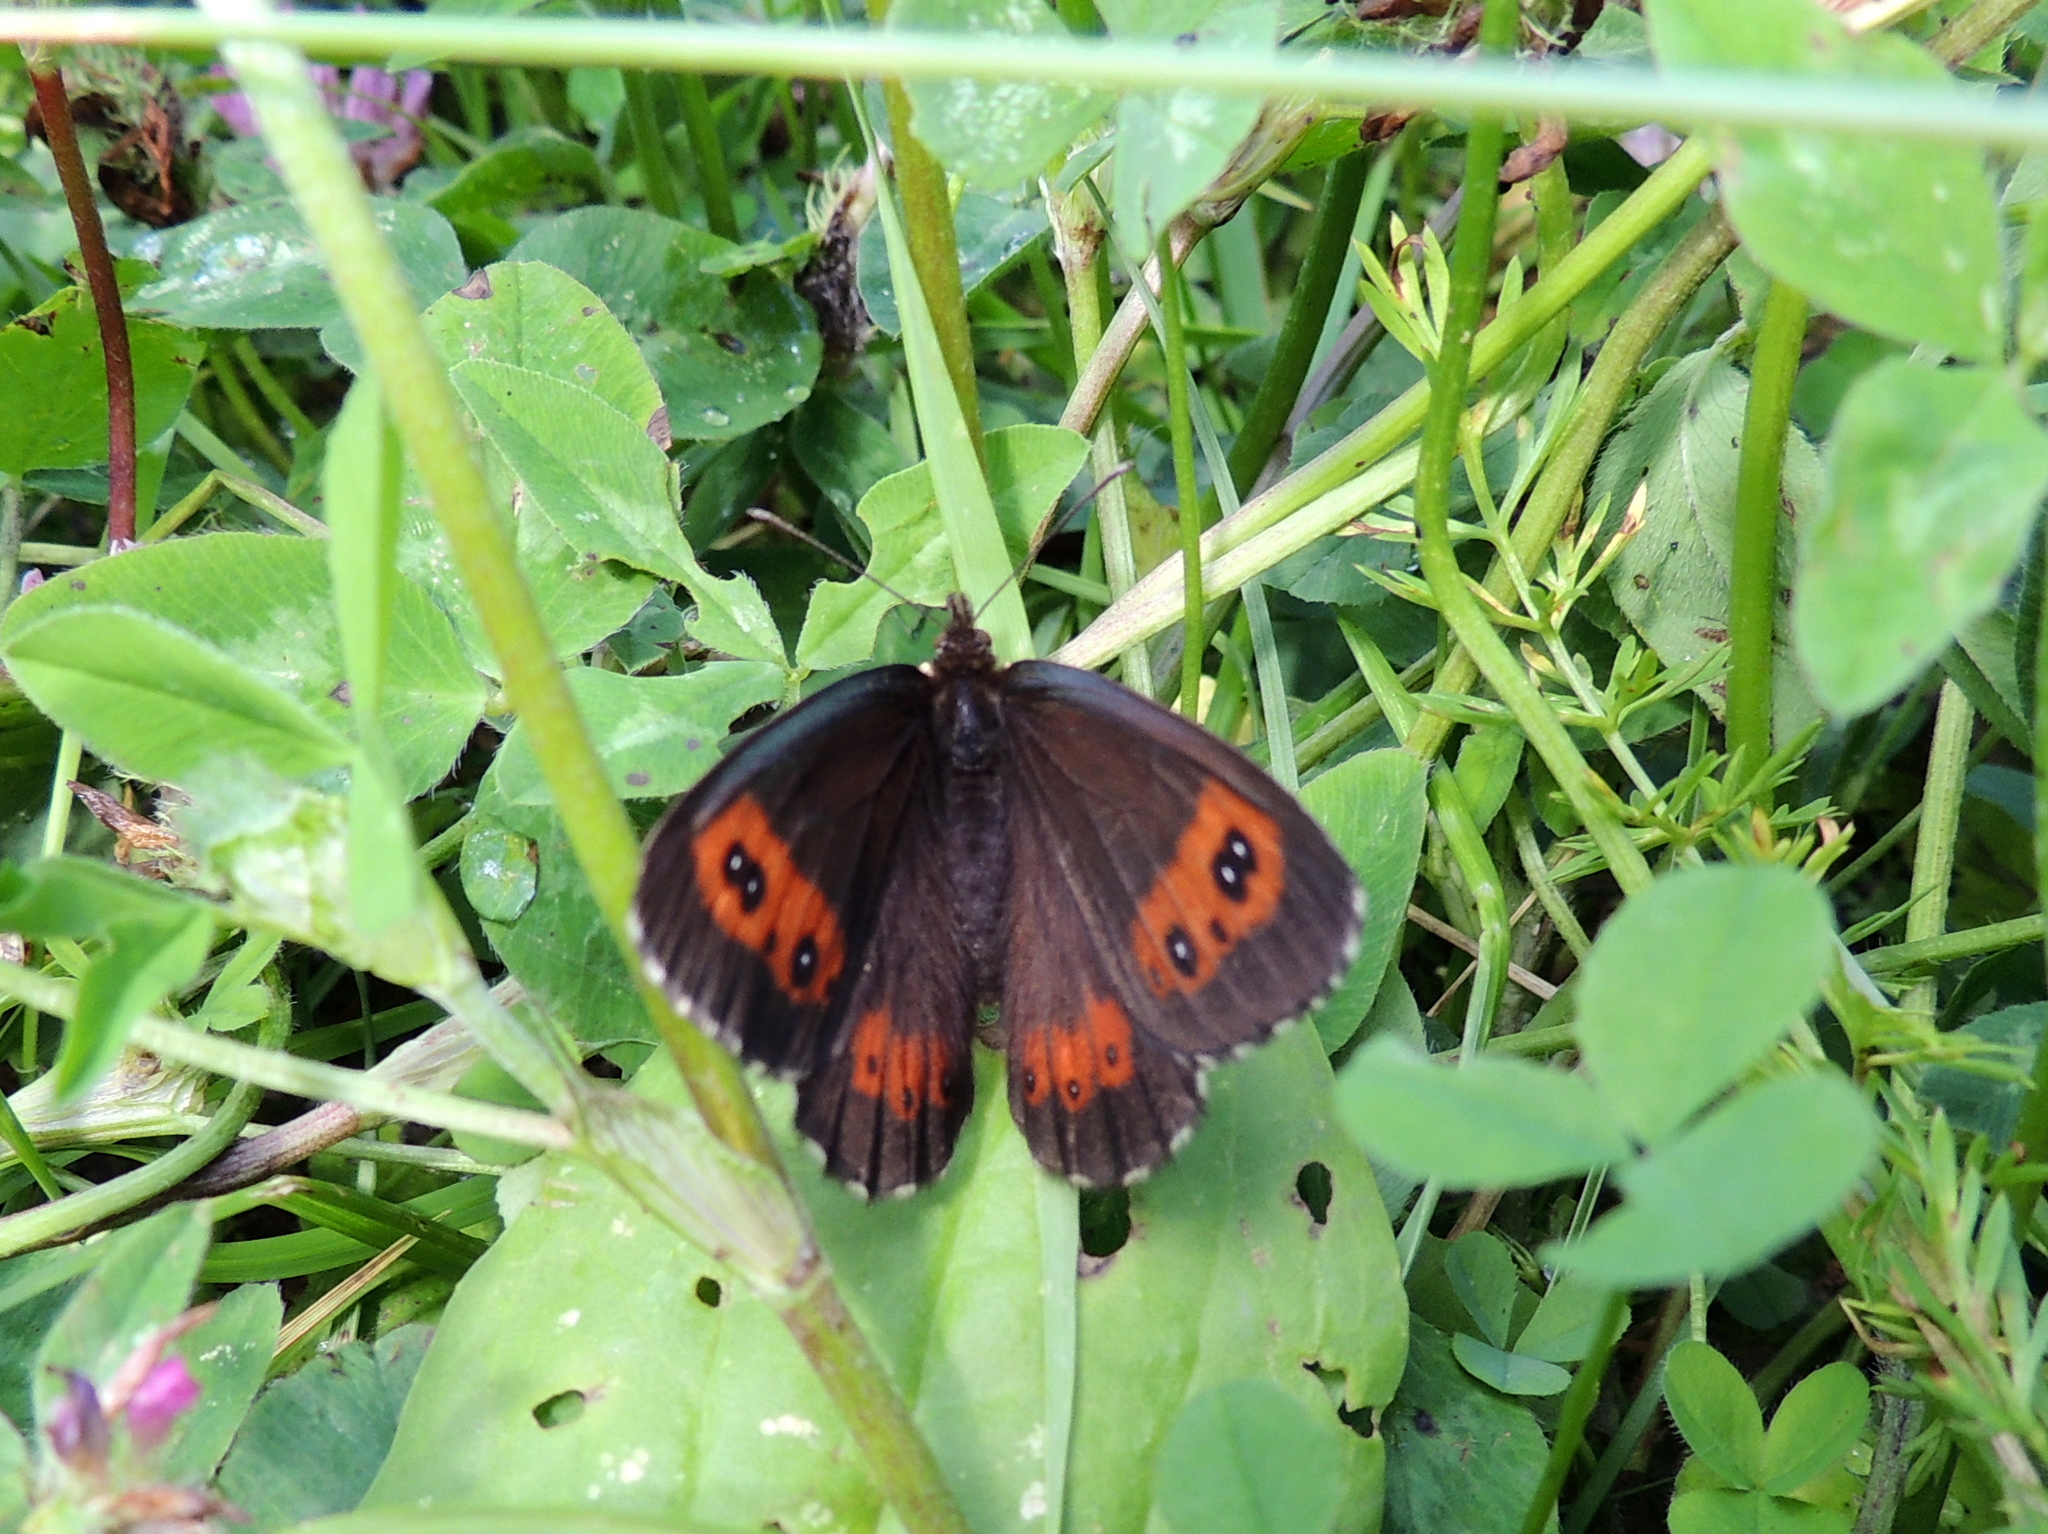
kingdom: Animalia
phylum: Arthropoda
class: Insecta
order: Lepidoptera
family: Nymphalidae
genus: Erebia
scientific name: Erebia ligea
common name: Arran brown
